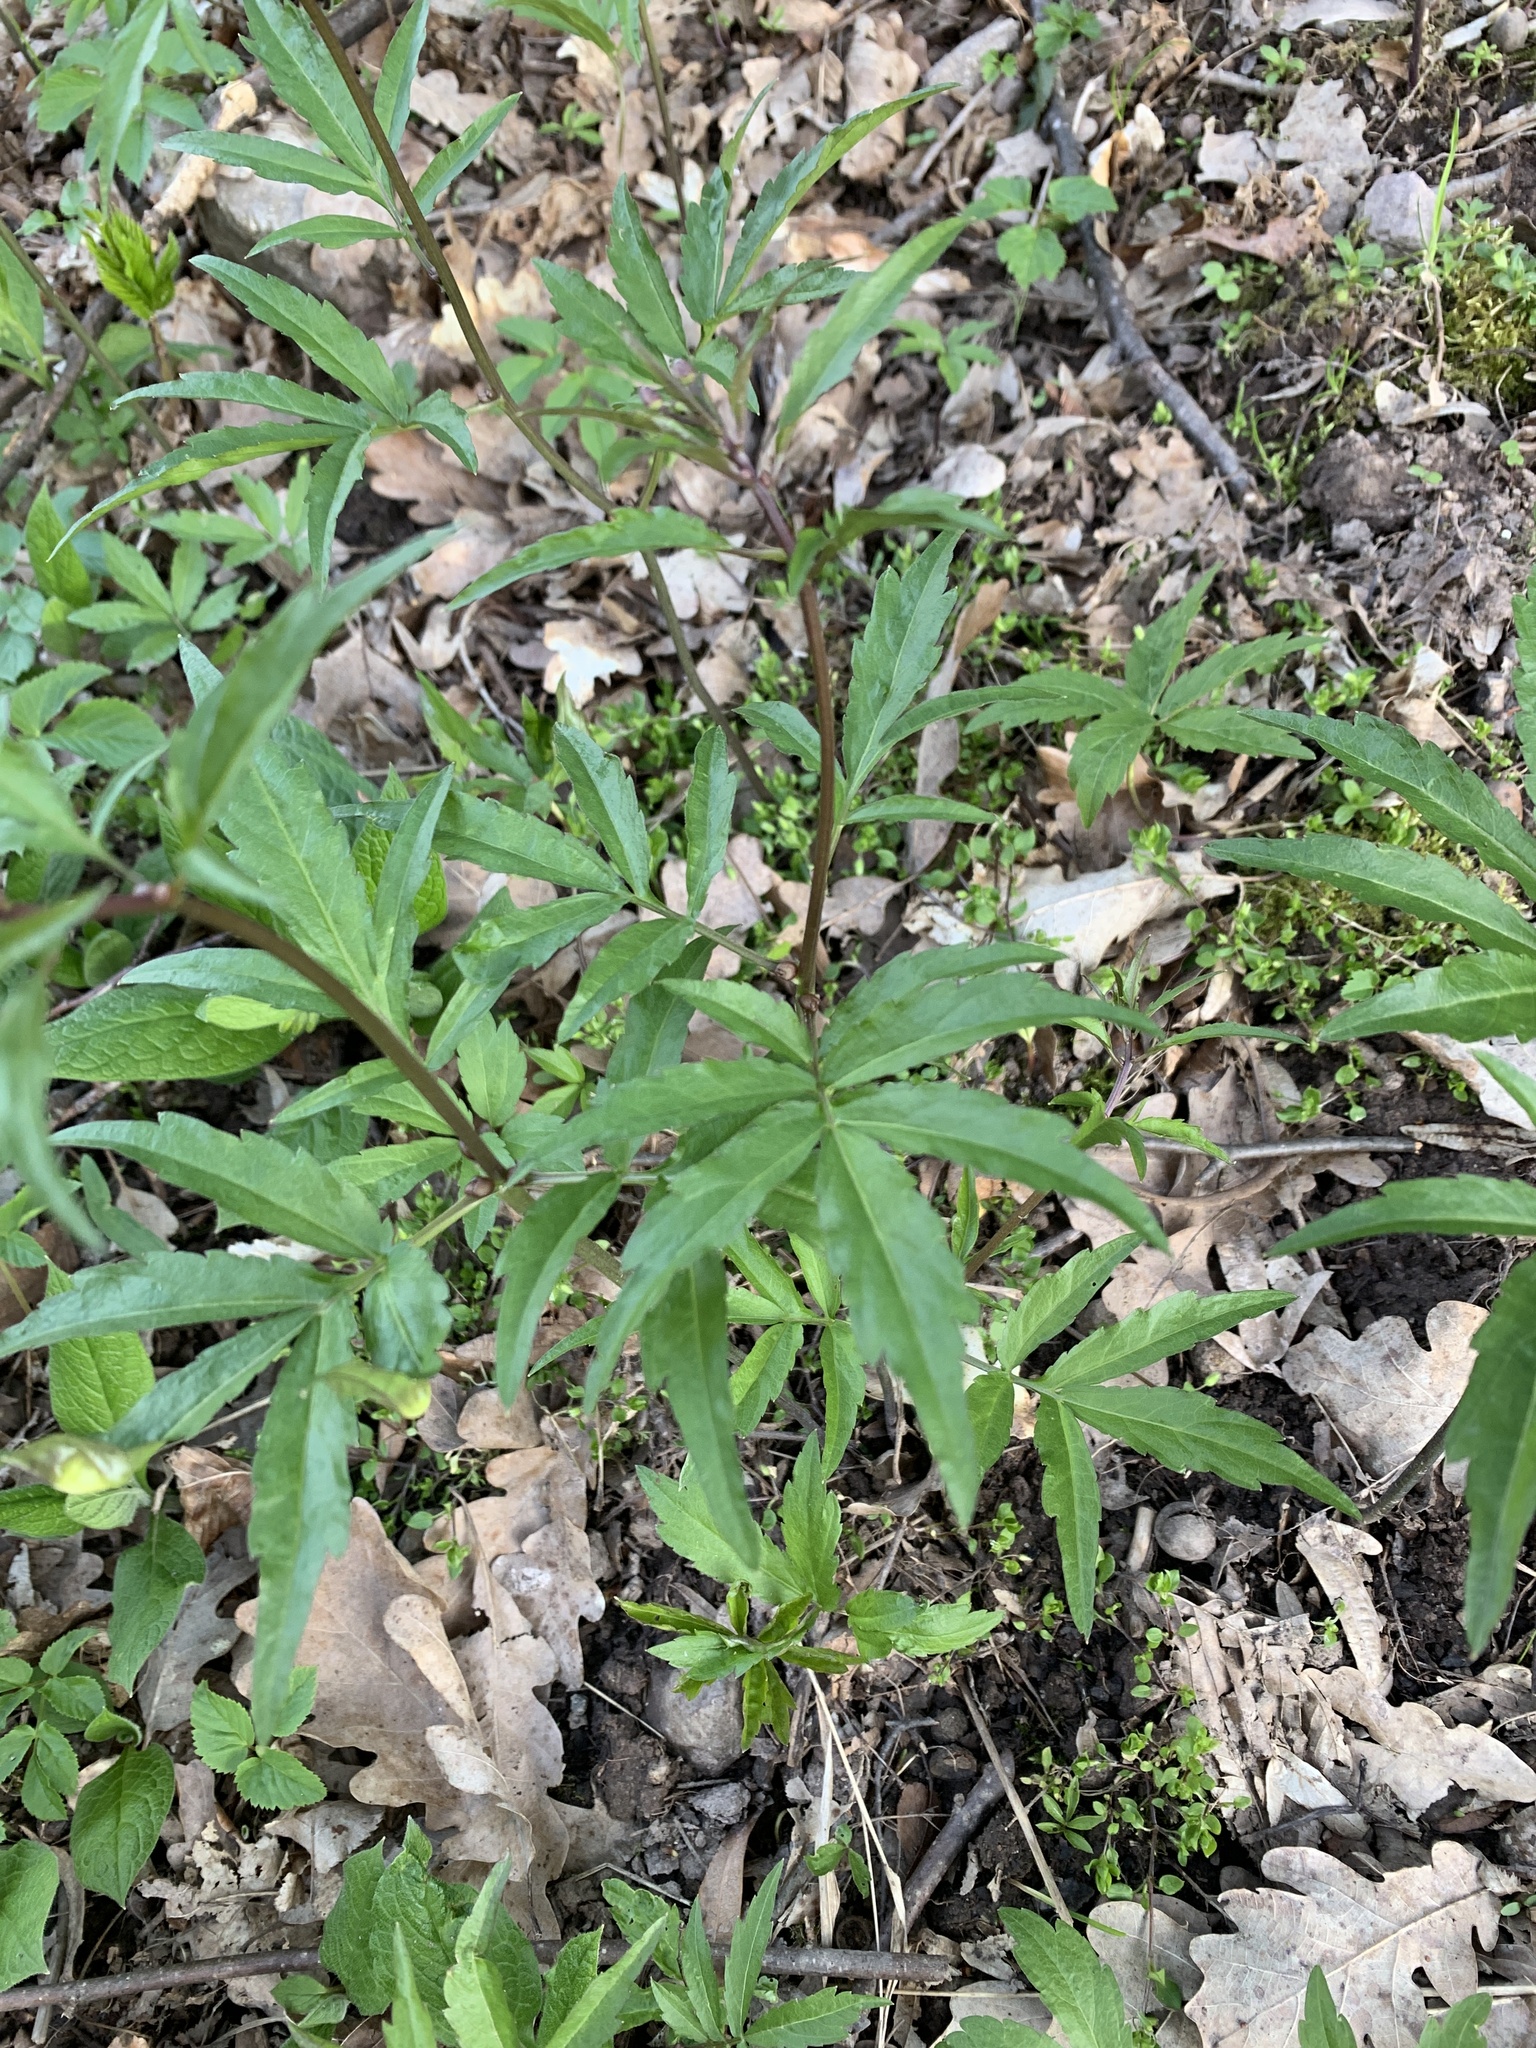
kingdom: Plantae
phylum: Tracheophyta
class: Magnoliopsida
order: Brassicales
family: Brassicaceae
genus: Cardamine
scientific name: Cardamine bulbifera
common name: Coralroot bittercress
